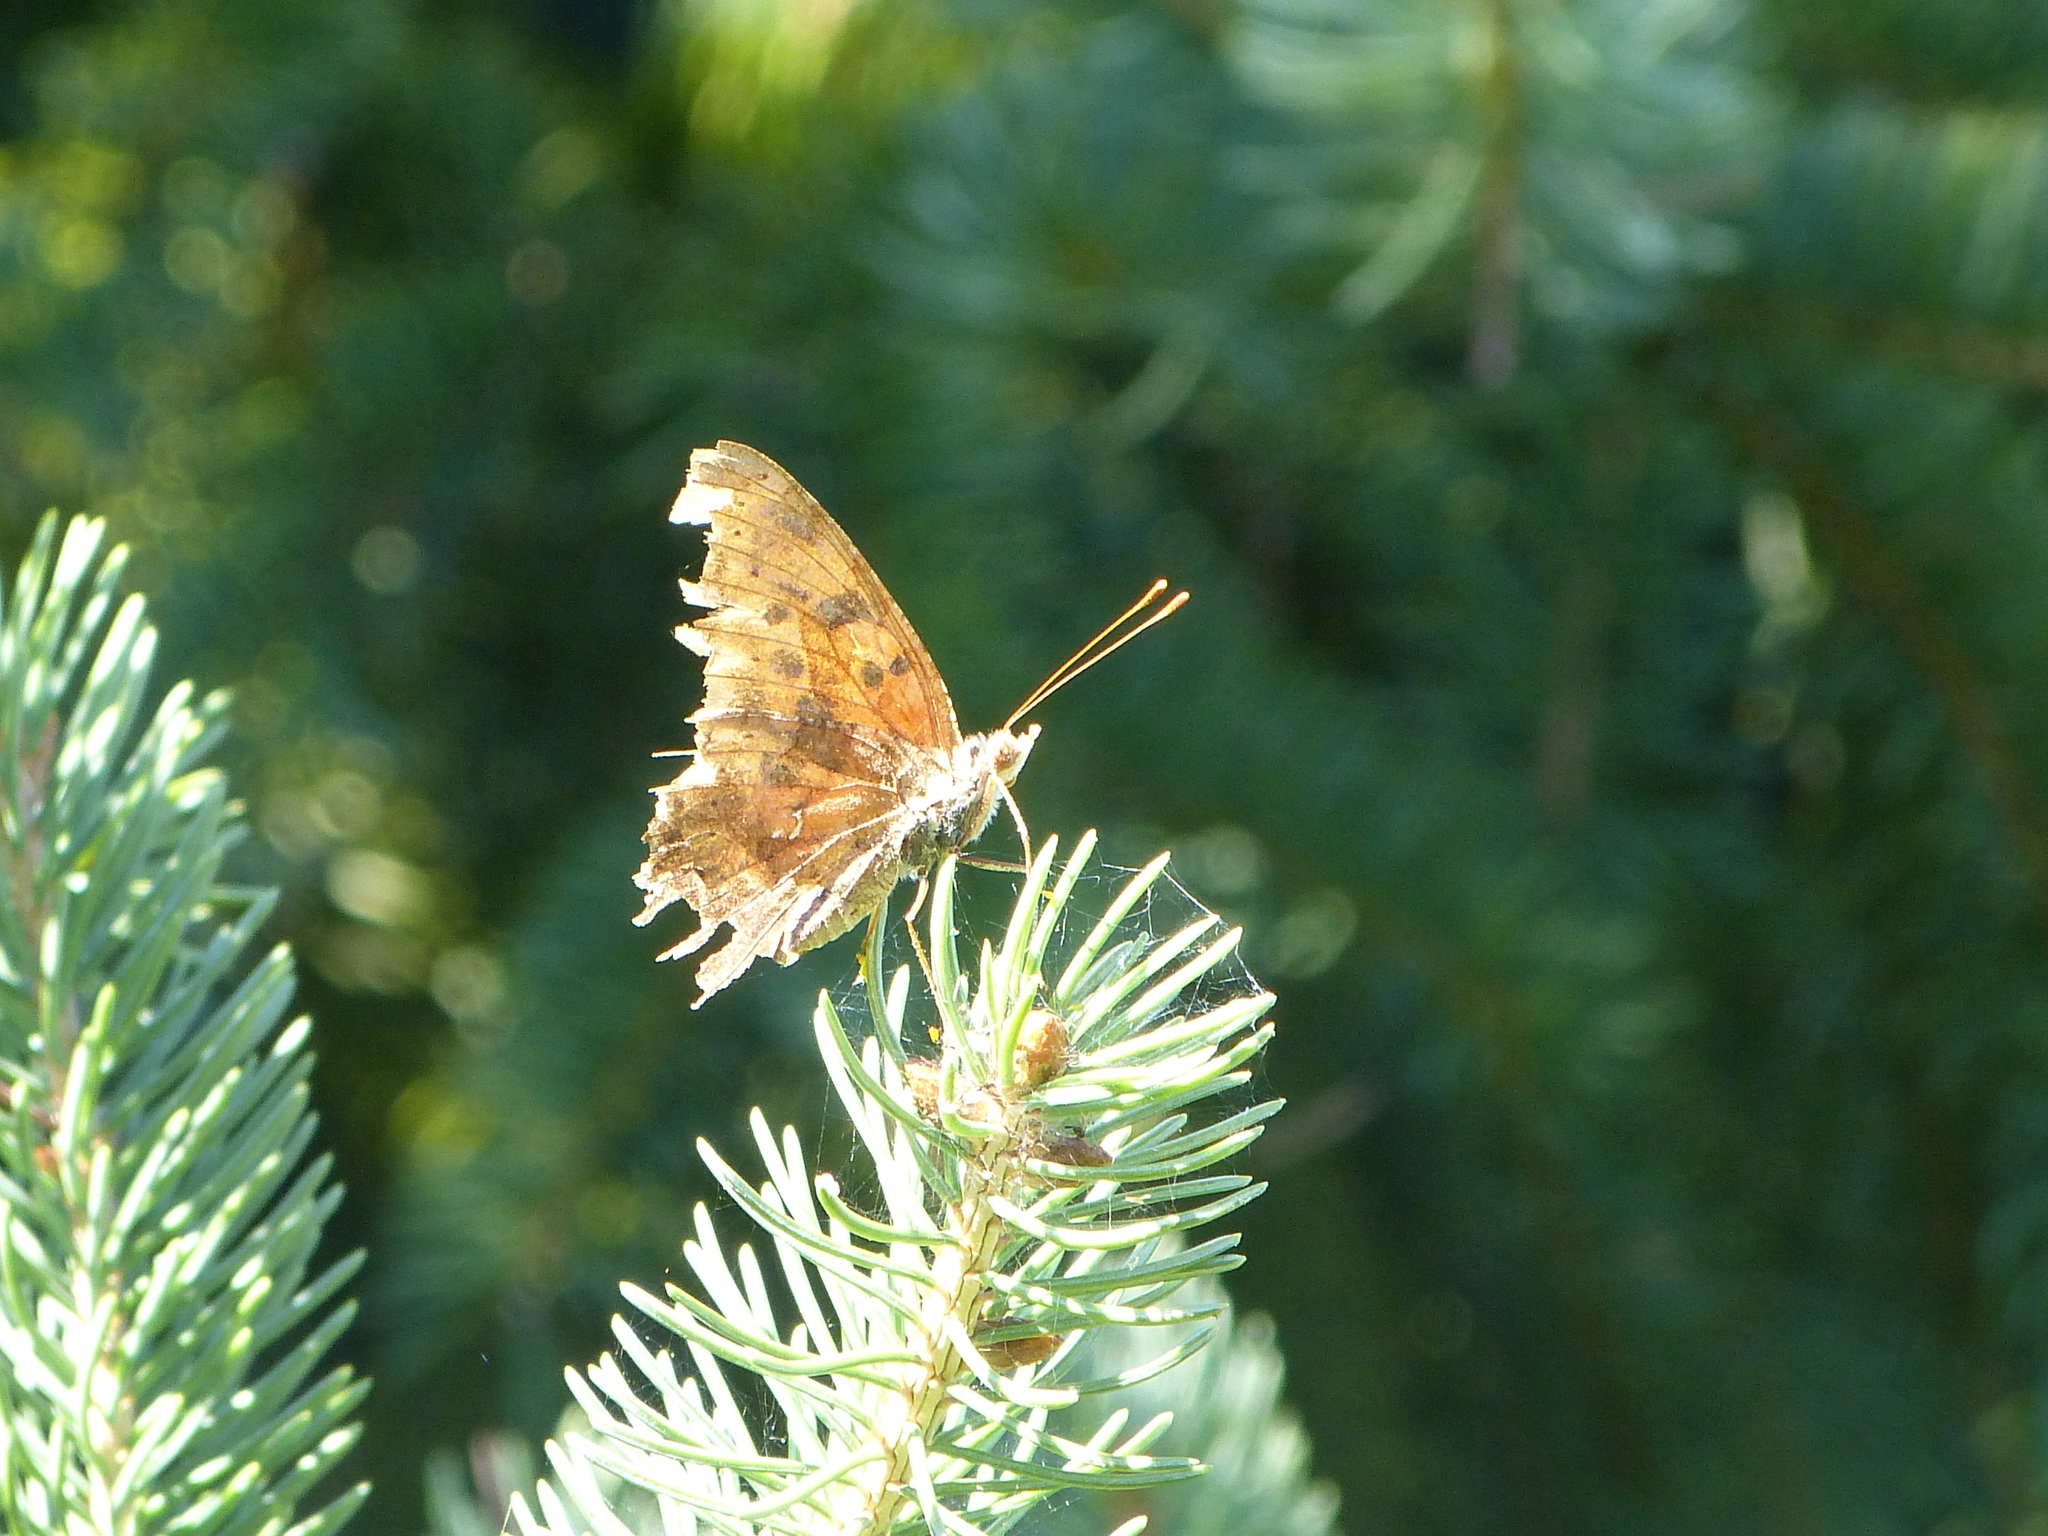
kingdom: Animalia
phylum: Arthropoda
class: Insecta
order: Lepidoptera
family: Nymphalidae
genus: Polygonia
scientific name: Polygonia interrogationis
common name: Question mark
